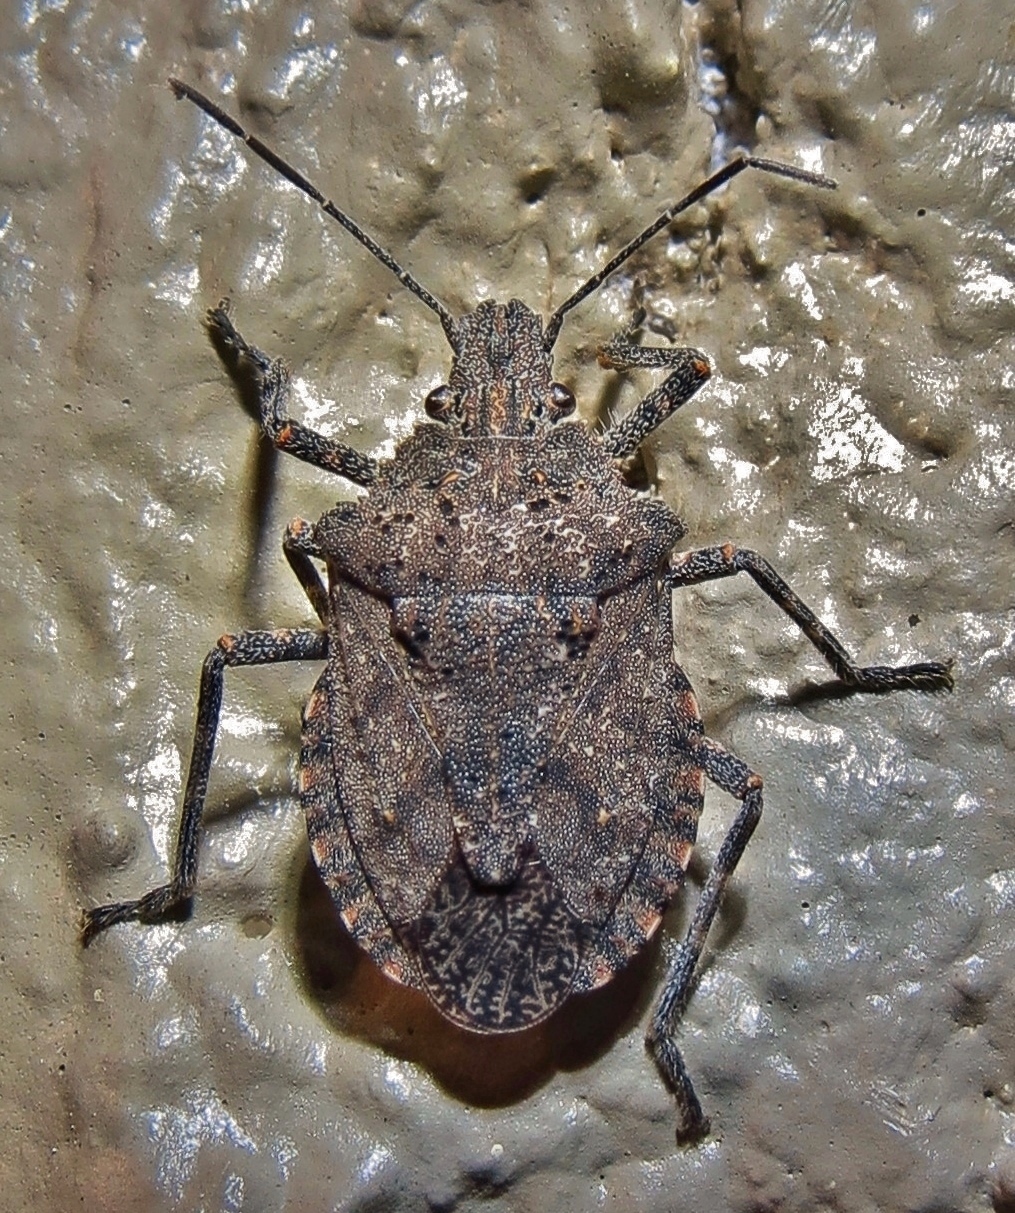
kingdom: Animalia
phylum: Arthropoda
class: Insecta
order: Hemiptera
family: Pentatomidae
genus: Brochymena
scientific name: Brochymena quadripustulata
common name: Four-humped stink bug
